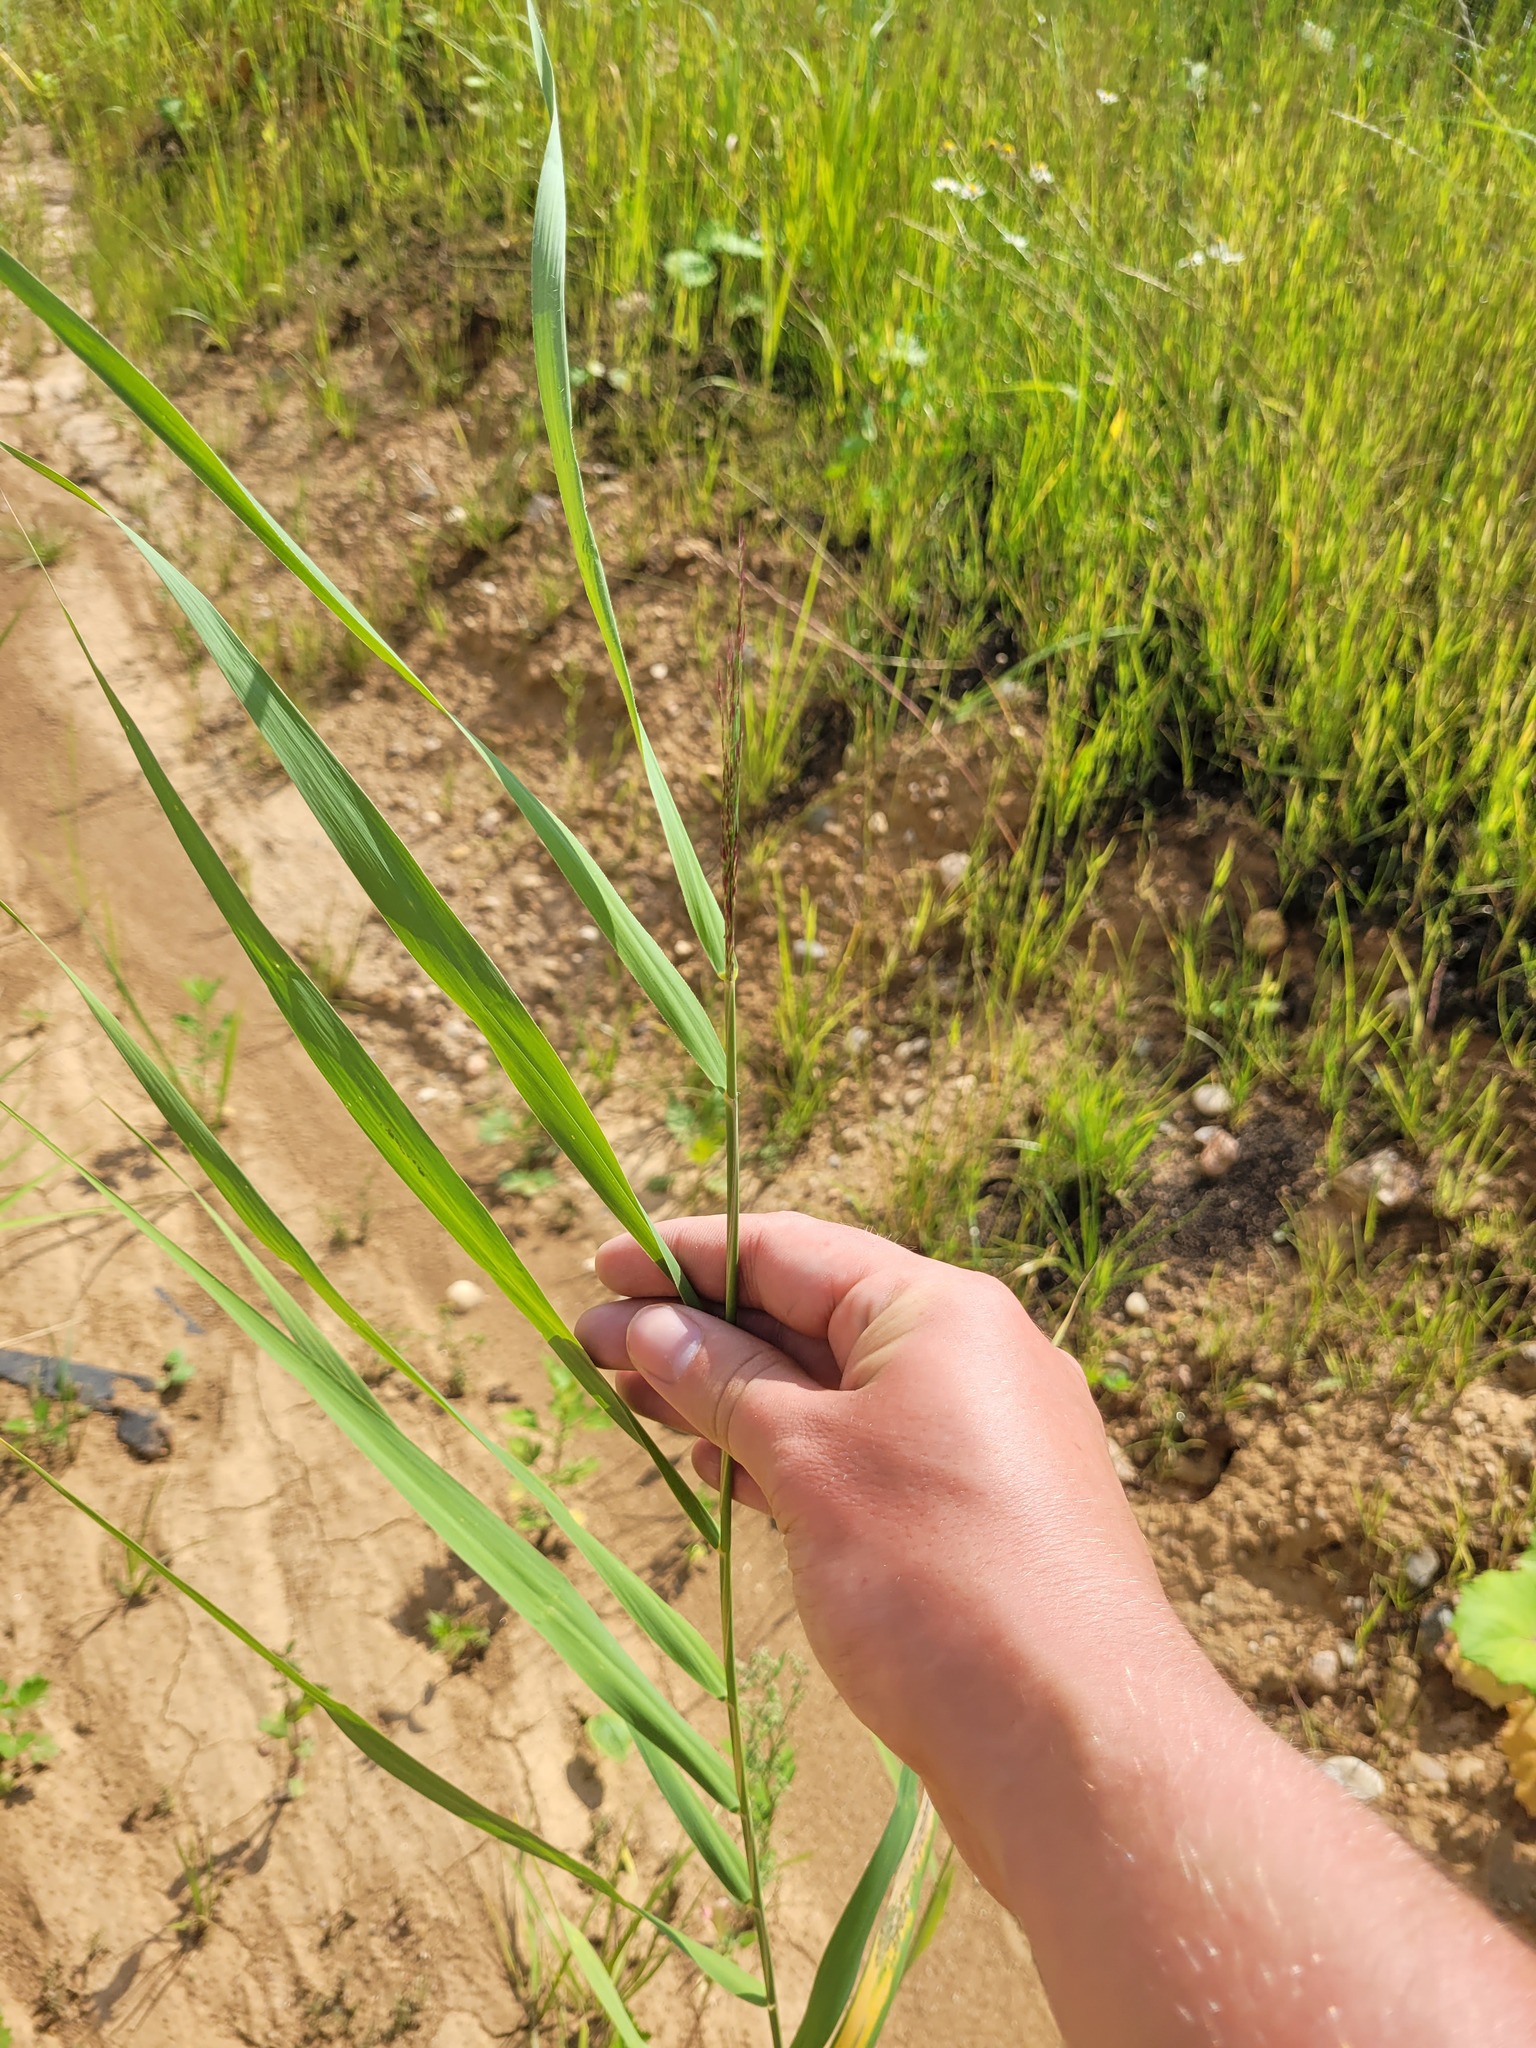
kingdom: Plantae
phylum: Tracheophyta
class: Liliopsida
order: Poales
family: Poaceae
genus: Phragmites
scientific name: Phragmites australis
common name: Common reed
